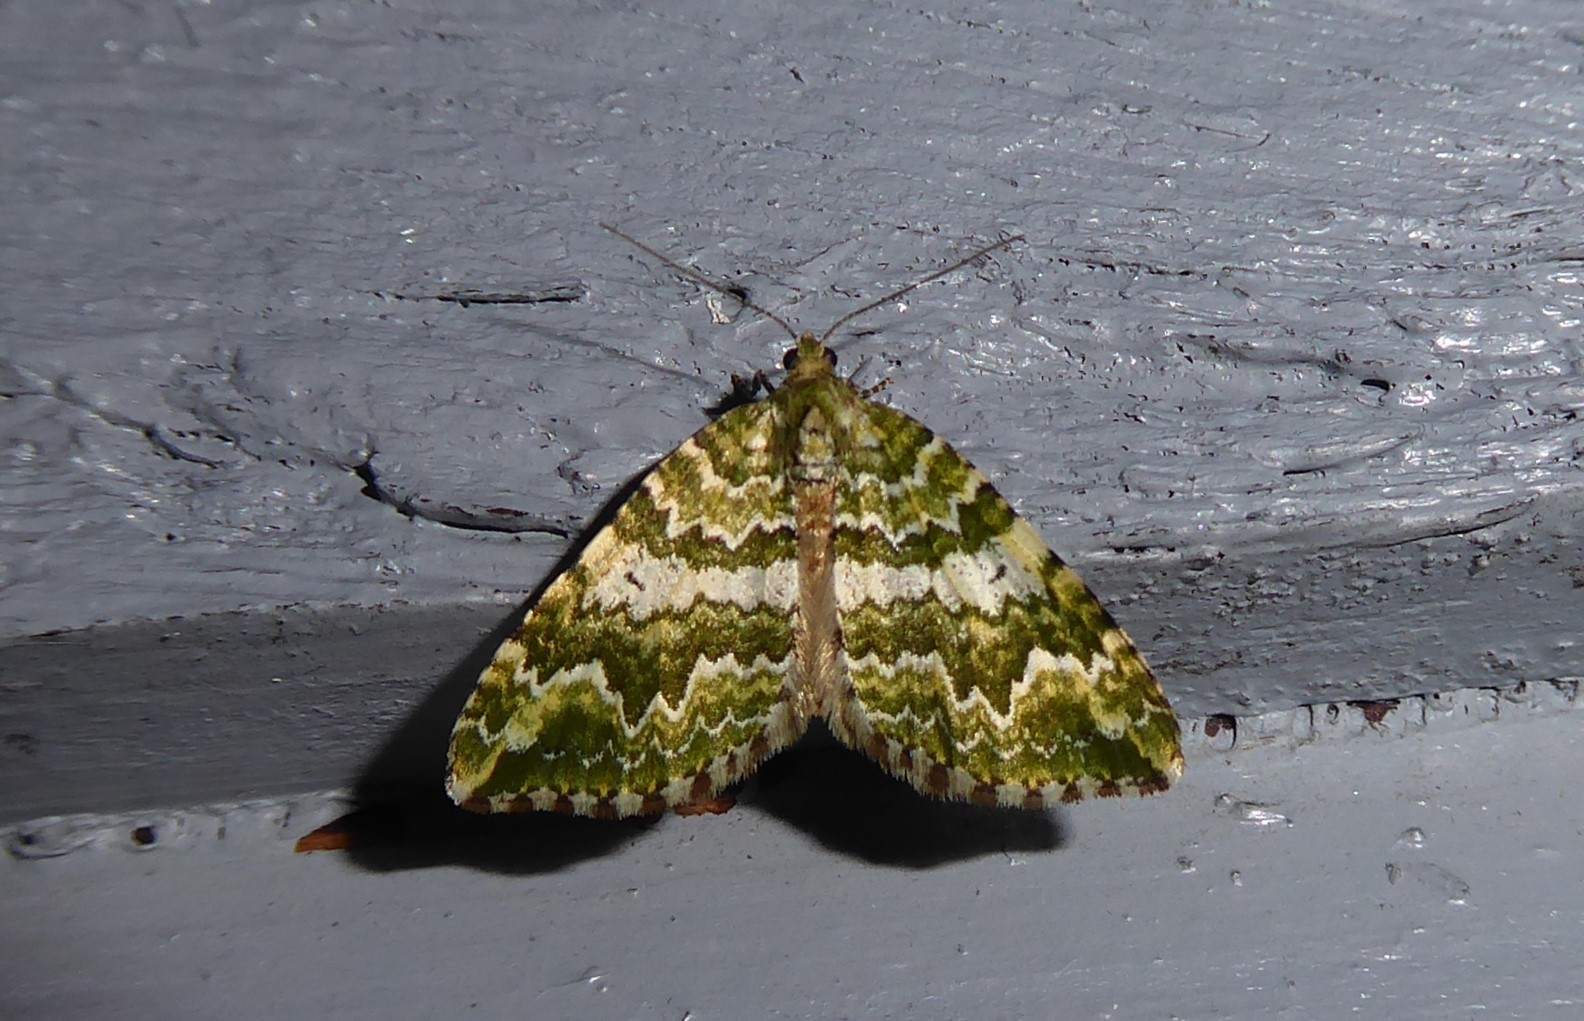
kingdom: Animalia
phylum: Arthropoda
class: Insecta
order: Lepidoptera
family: Geometridae
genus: Asaphodes
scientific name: Asaphodes beata
